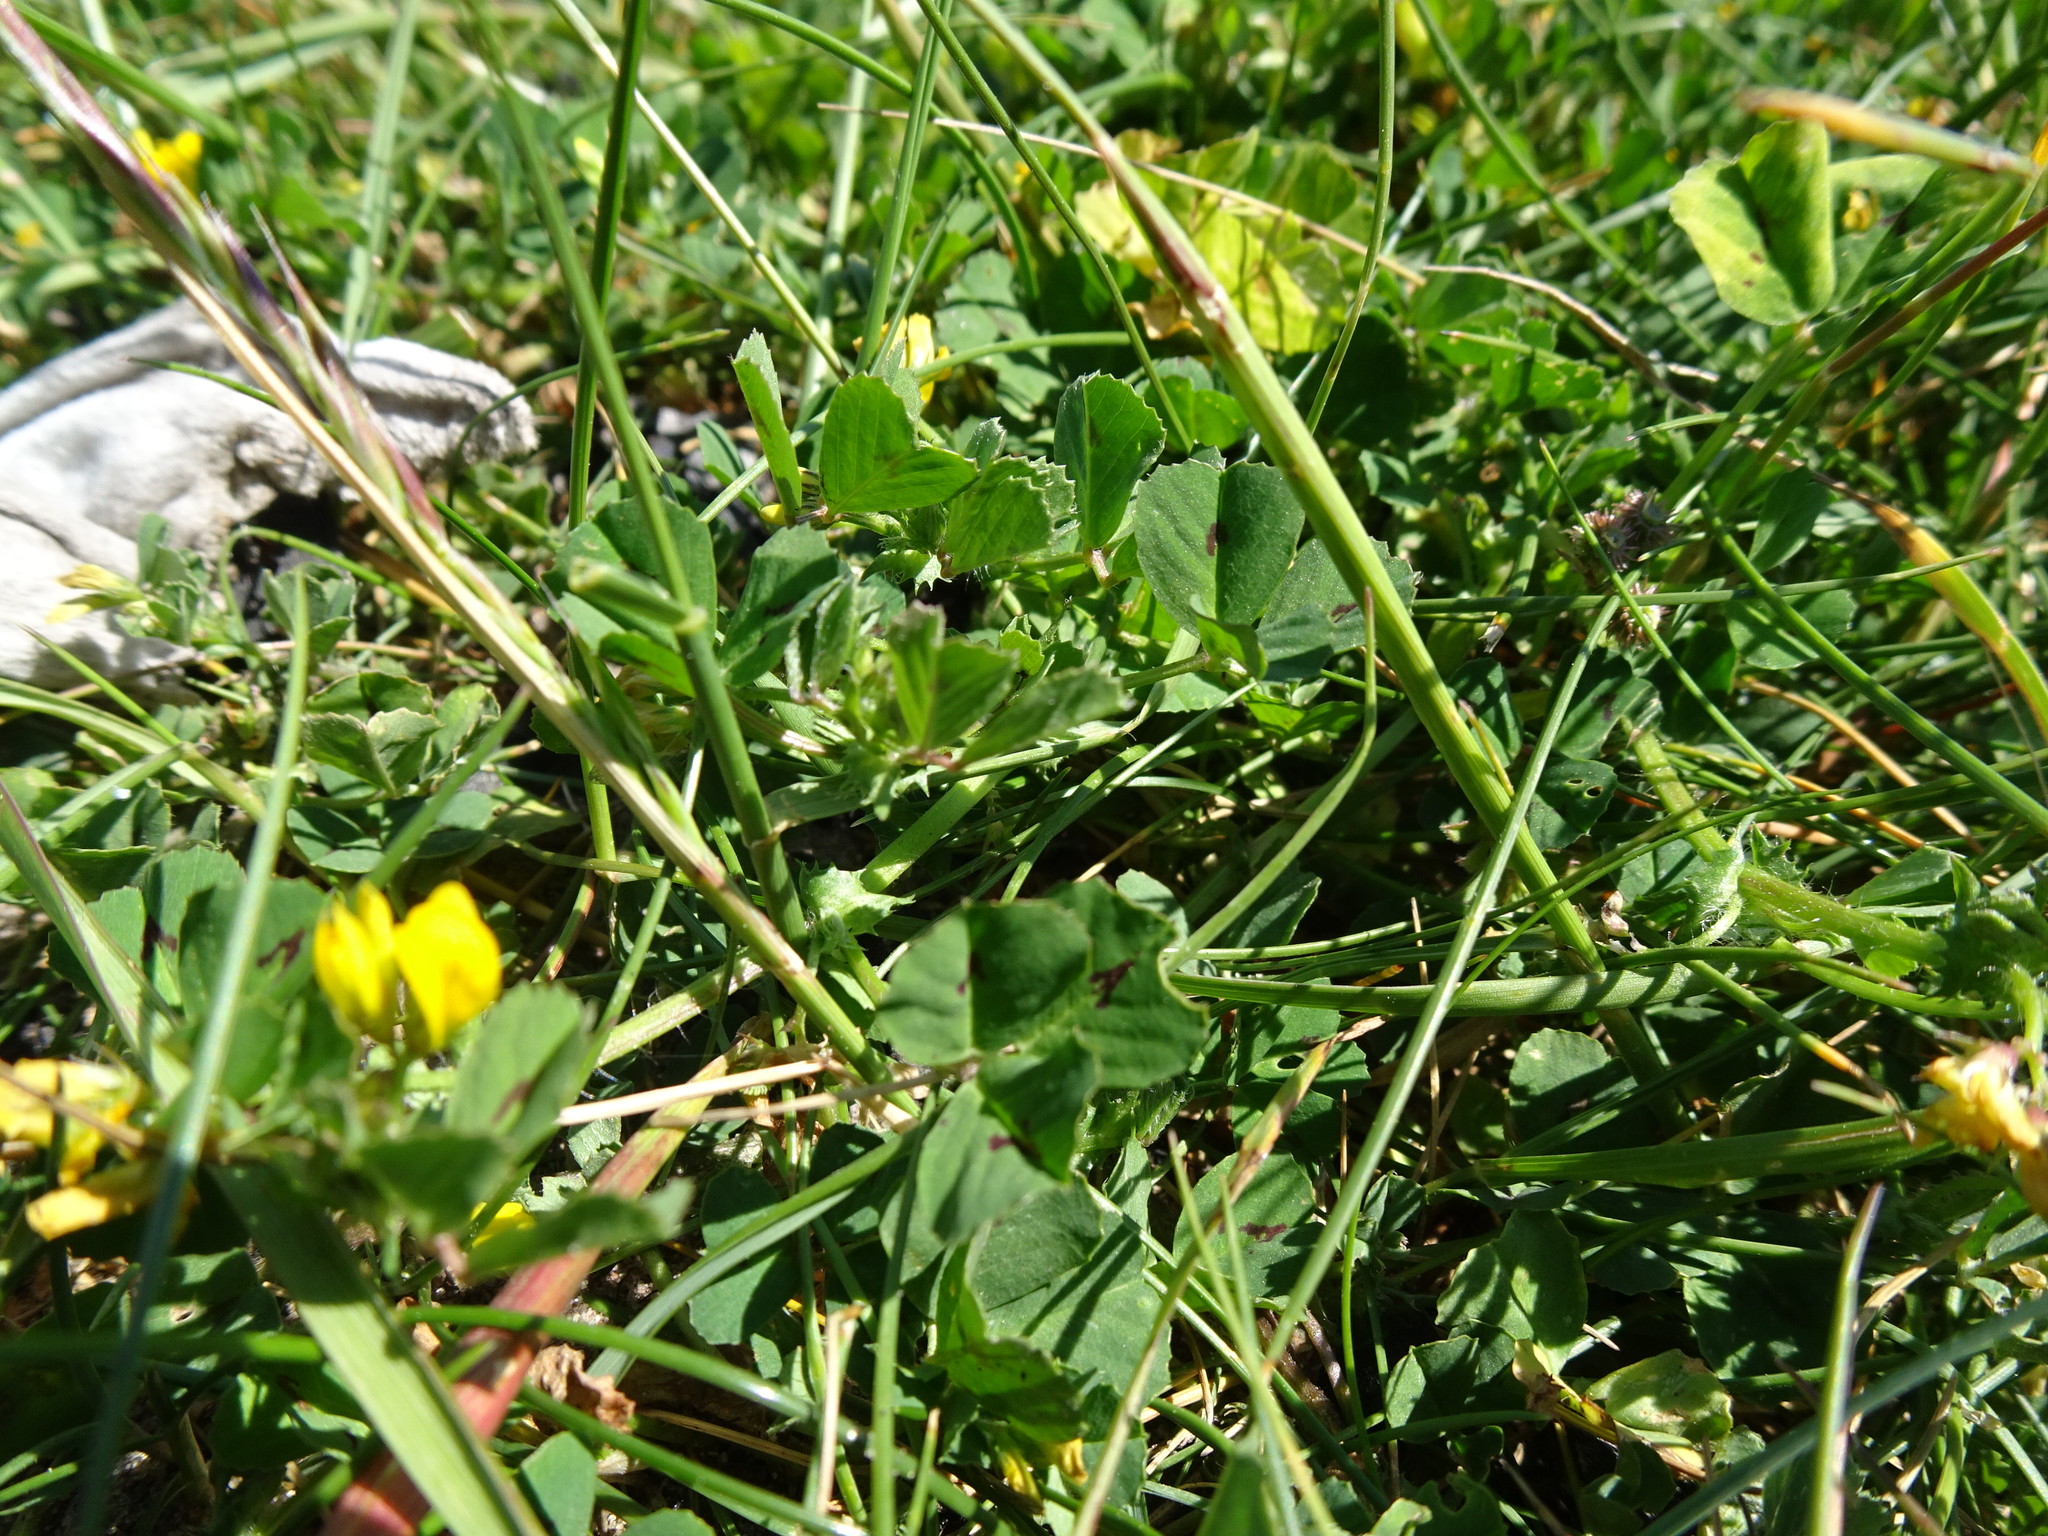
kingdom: Plantae
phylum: Tracheophyta
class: Magnoliopsida
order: Fabales
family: Fabaceae
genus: Medicago
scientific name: Medicago arabica
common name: Spotted medick
